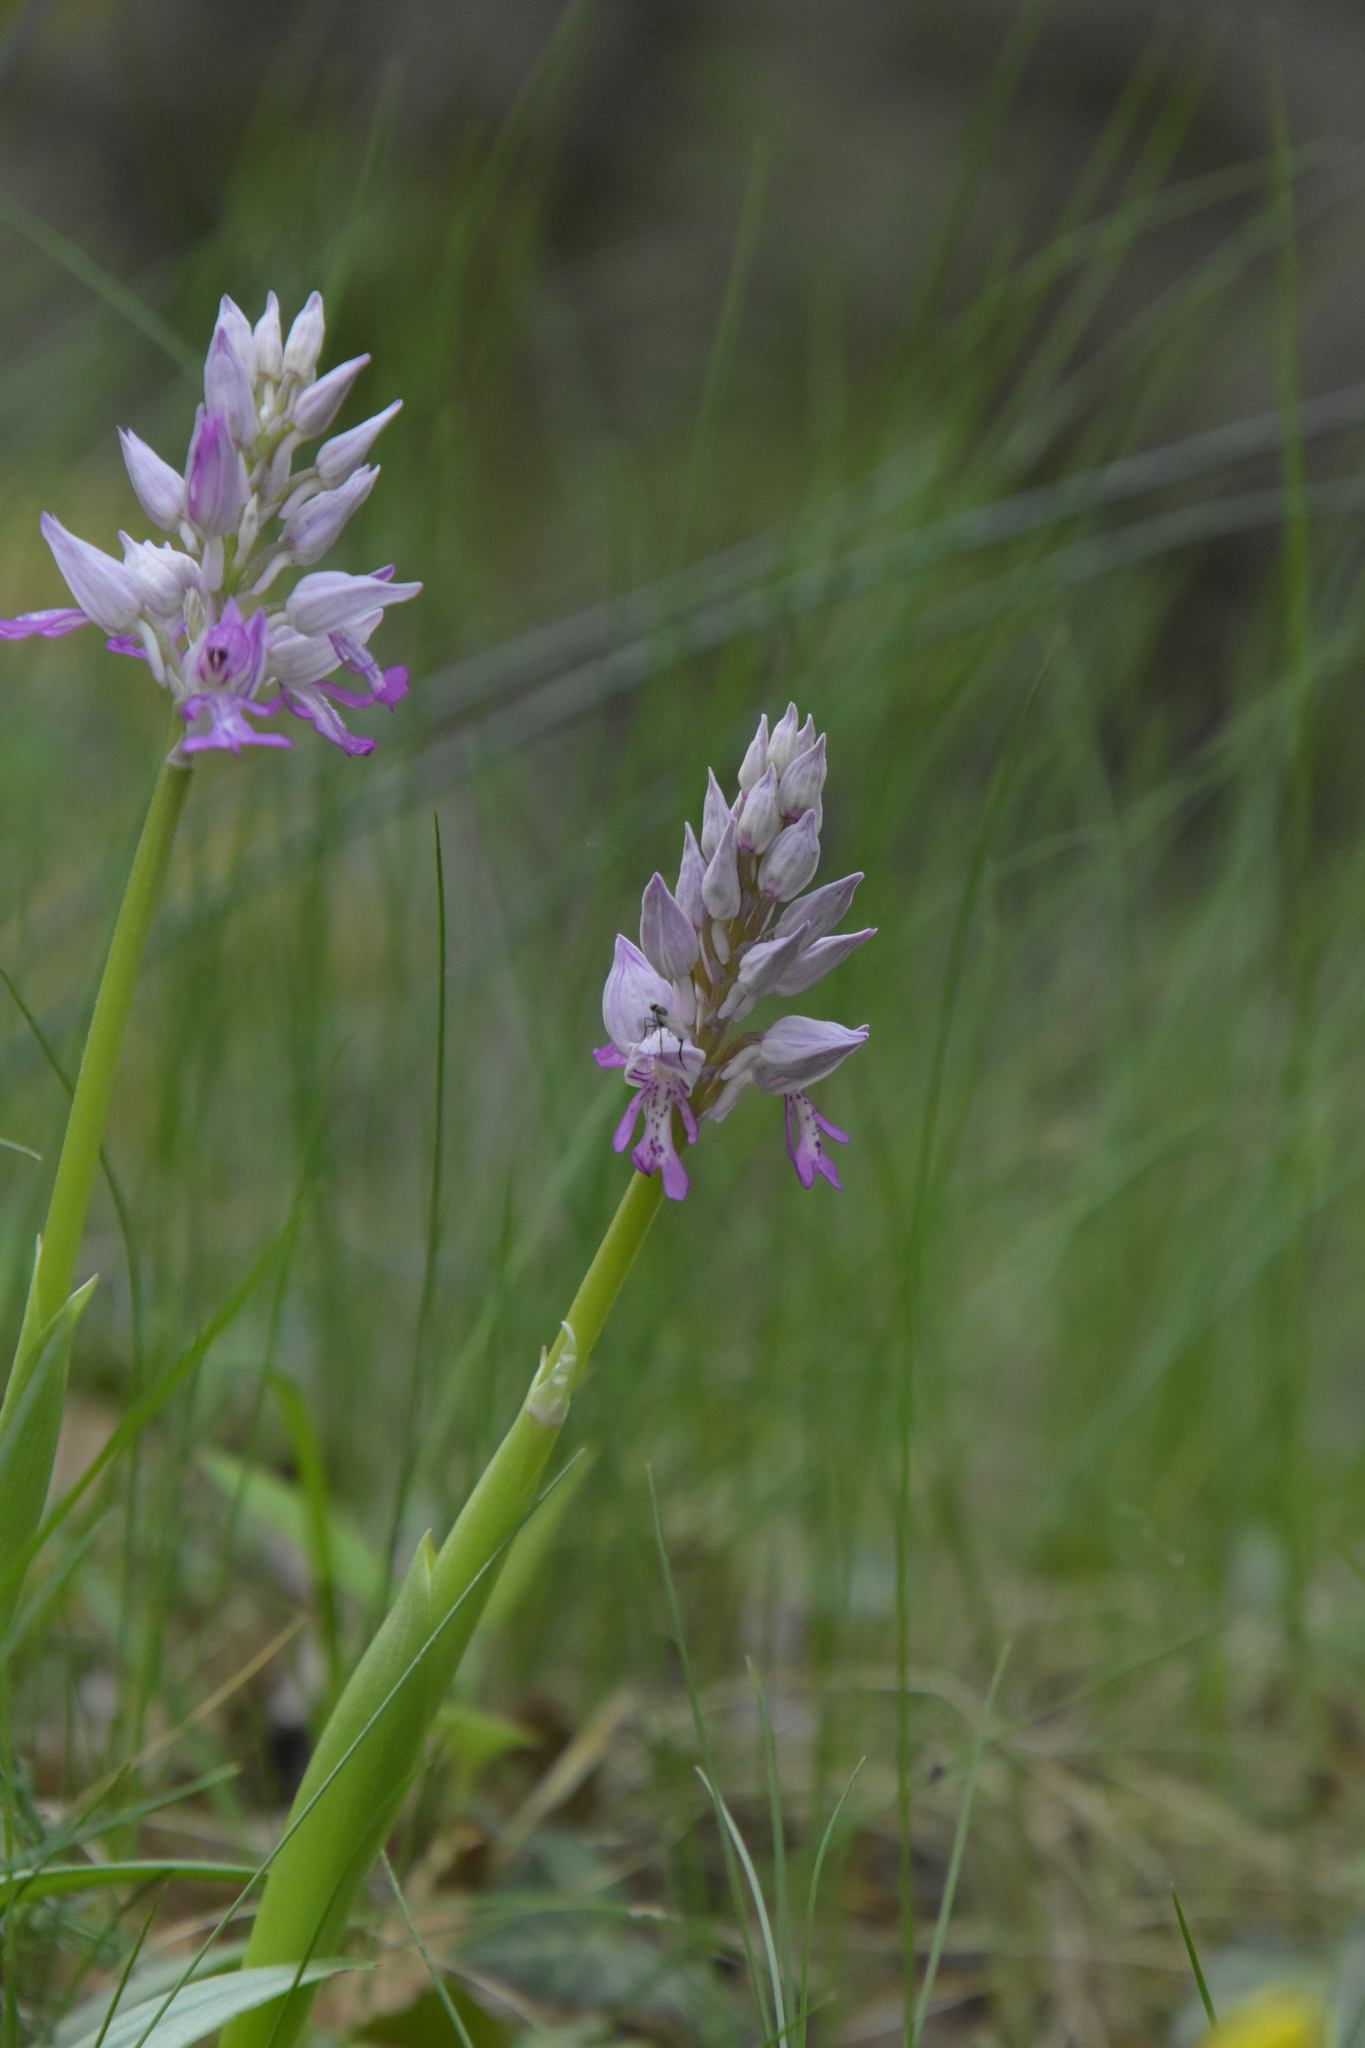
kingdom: Plantae
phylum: Tracheophyta
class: Liliopsida
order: Asparagales
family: Orchidaceae
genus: Orchis
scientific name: Orchis militaris
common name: Military orchid
